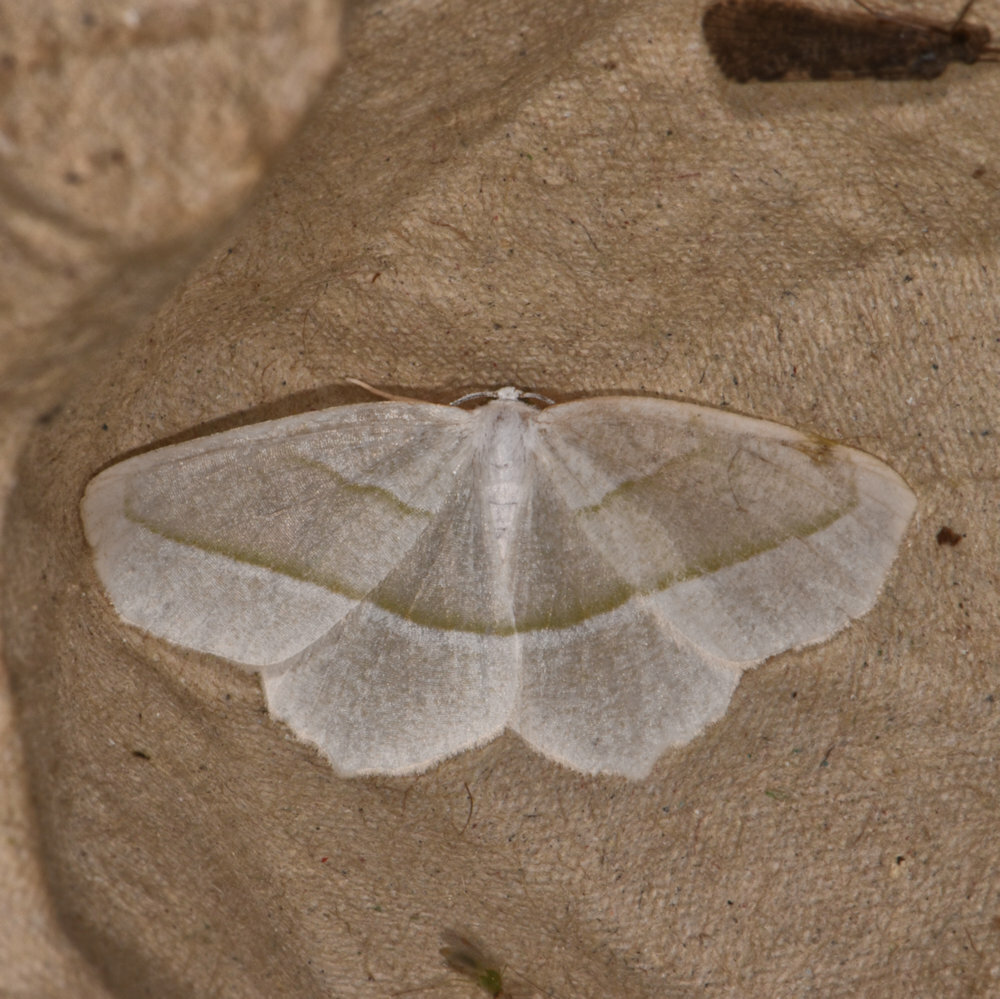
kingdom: Animalia
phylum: Arthropoda
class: Insecta
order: Lepidoptera
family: Geometridae
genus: Campaea
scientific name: Campaea perlata
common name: Fringed looper
